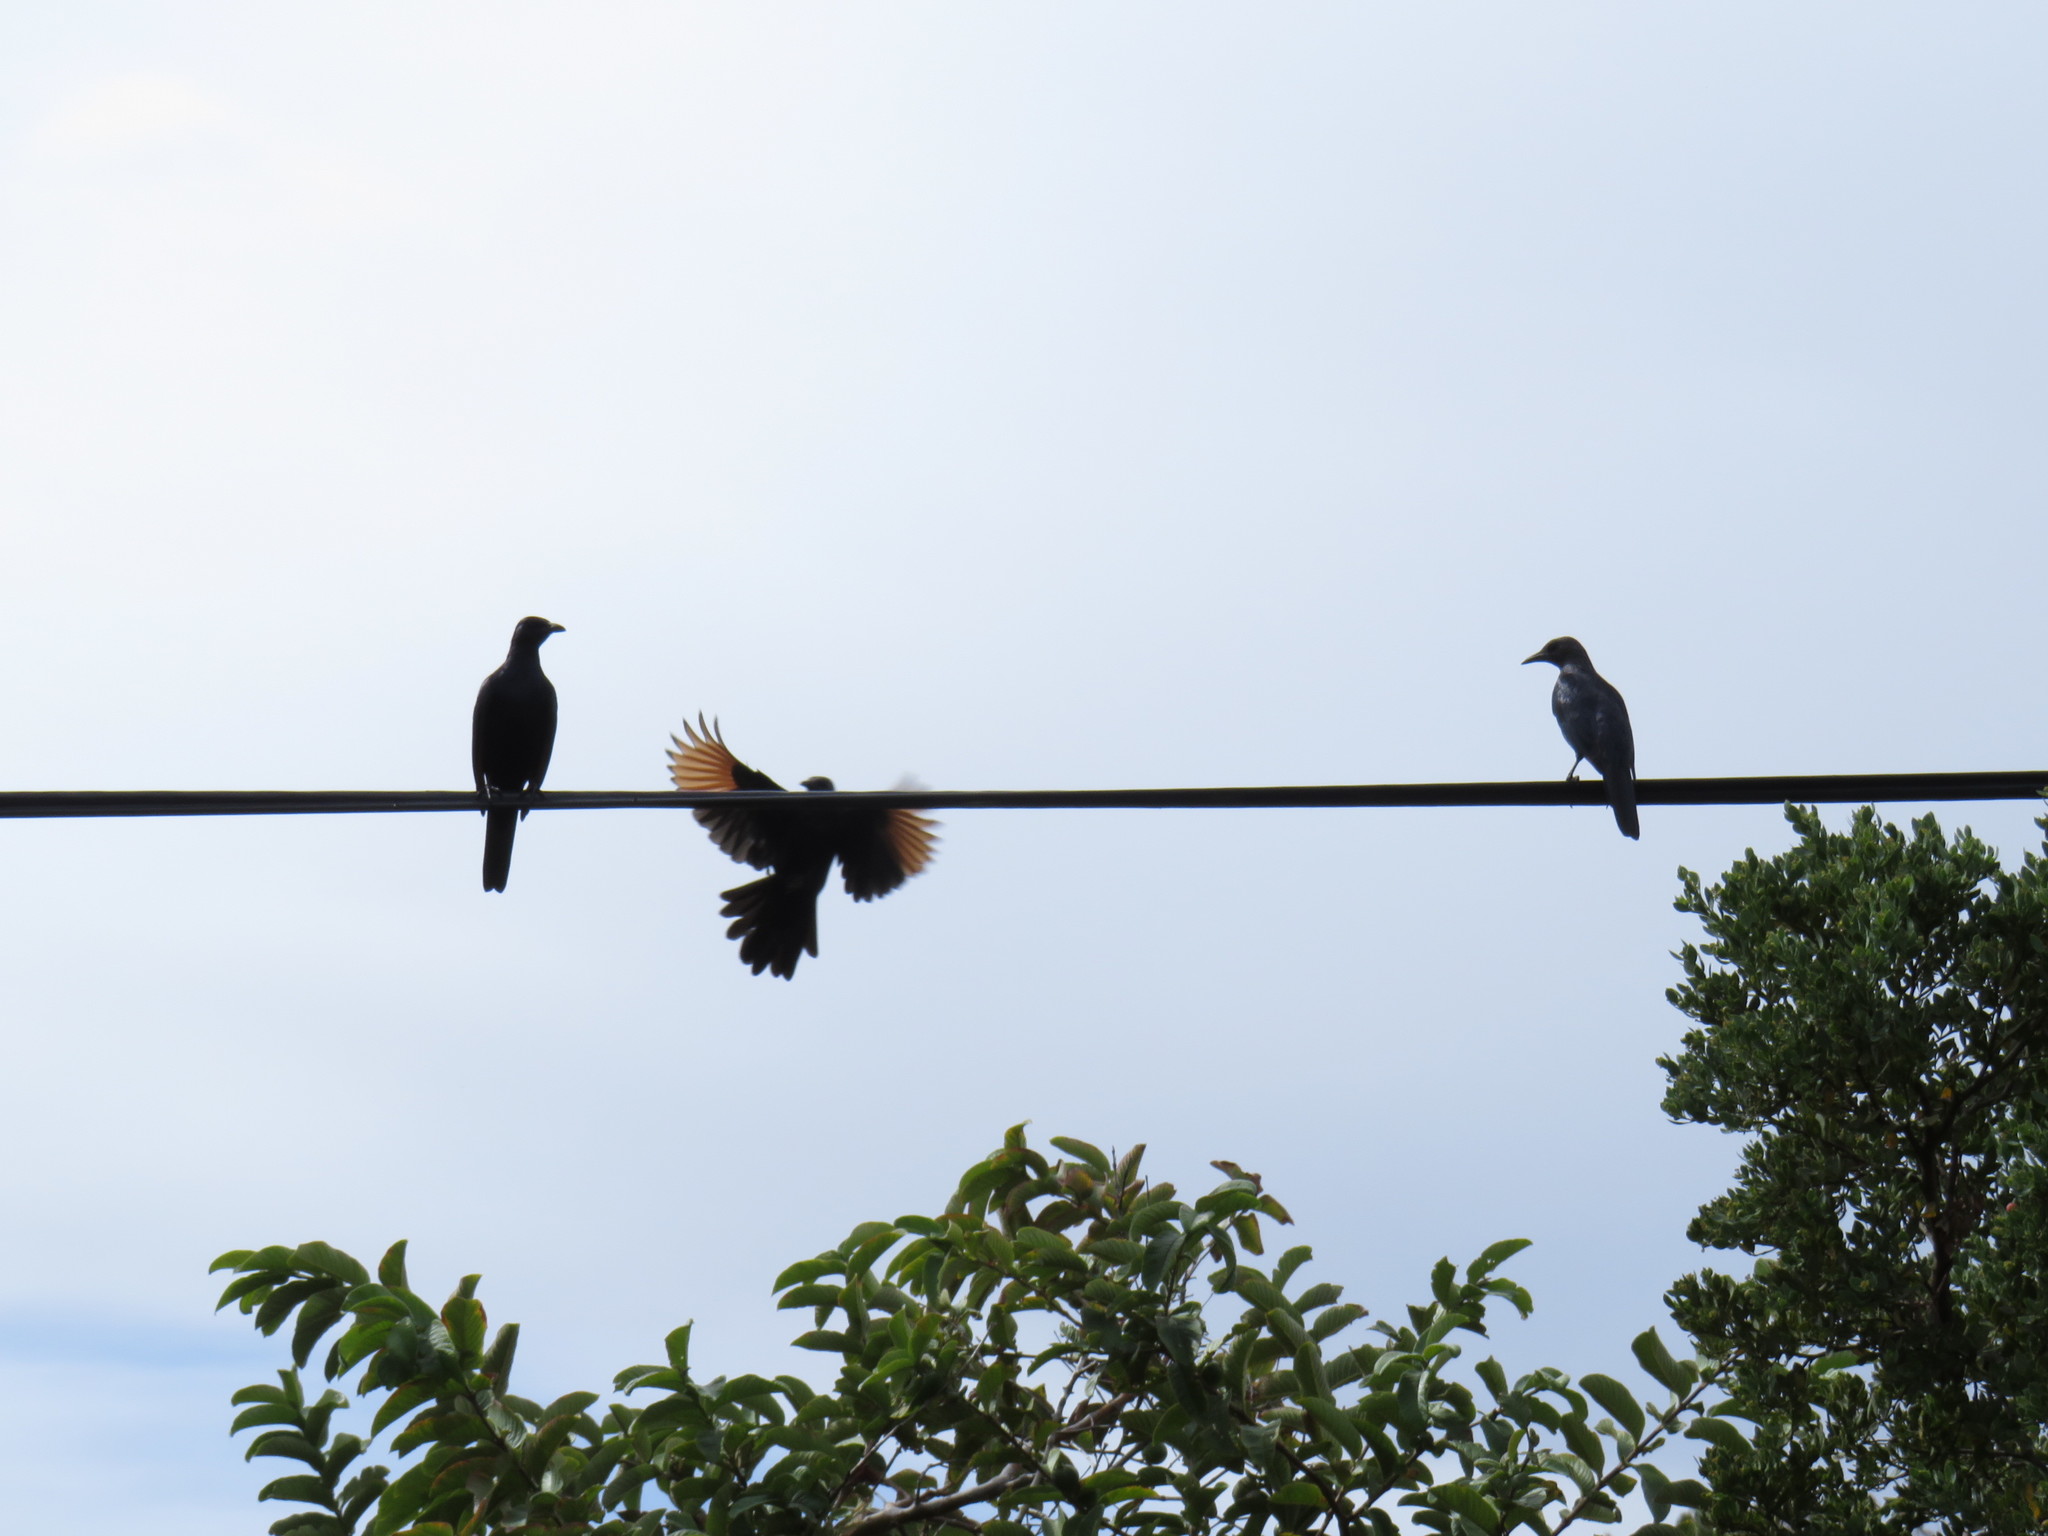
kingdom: Animalia
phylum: Chordata
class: Aves
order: Passeriformes
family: Sturnidae
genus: Onychognathus
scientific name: Onychognathus morio
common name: Red-winged starling
